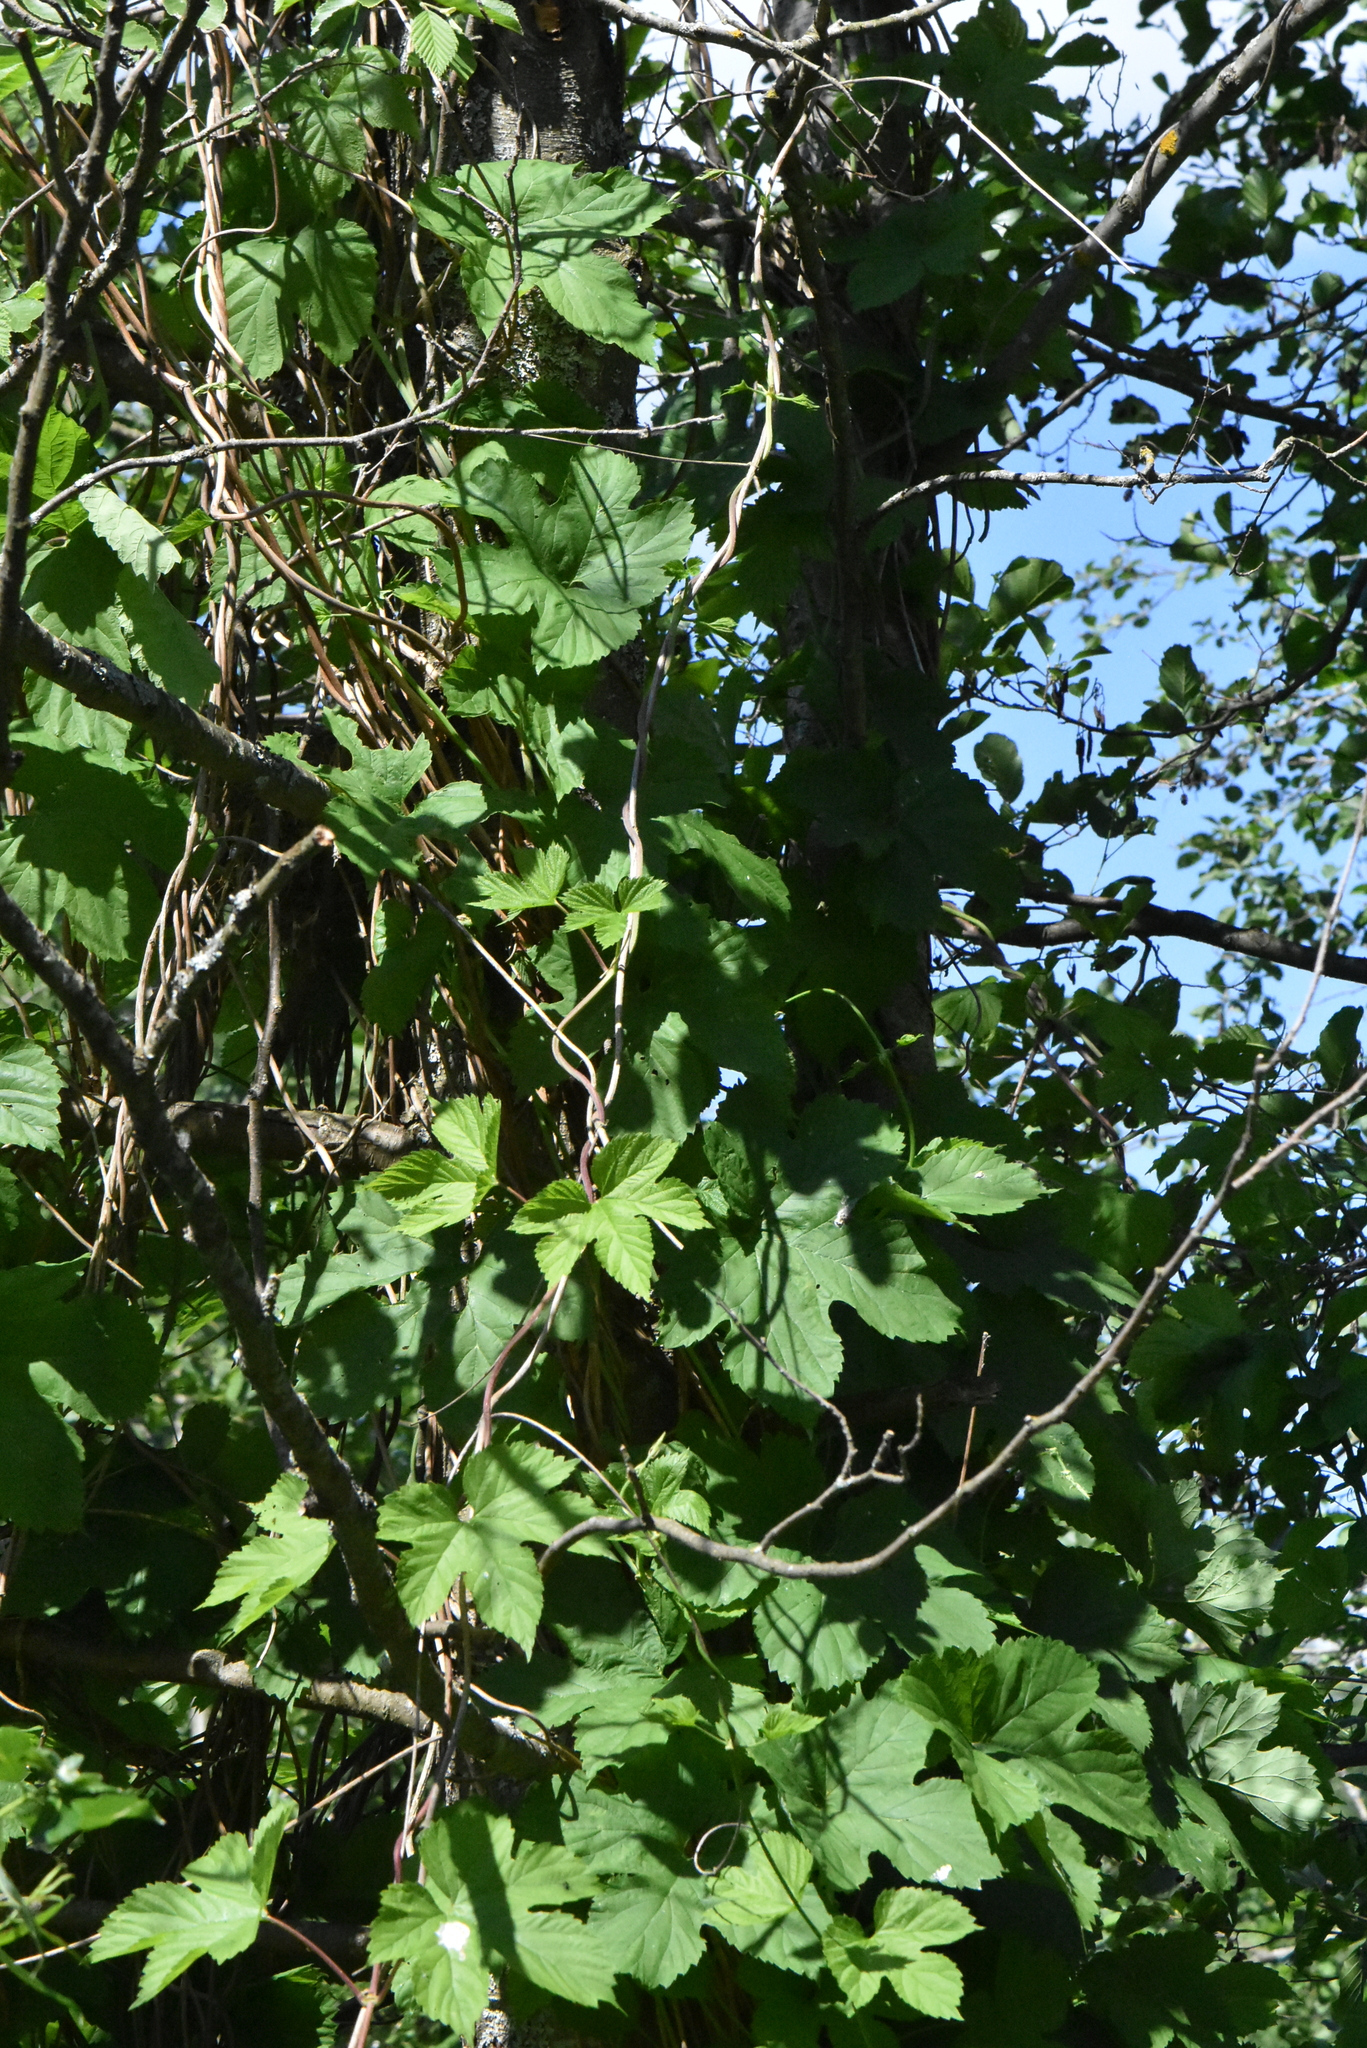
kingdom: Plantae
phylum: Tracheophyta
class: Magnoliopsida
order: Rosales
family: Cannabaceae
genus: Humulus
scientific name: Humulus lupulus
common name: Hop
